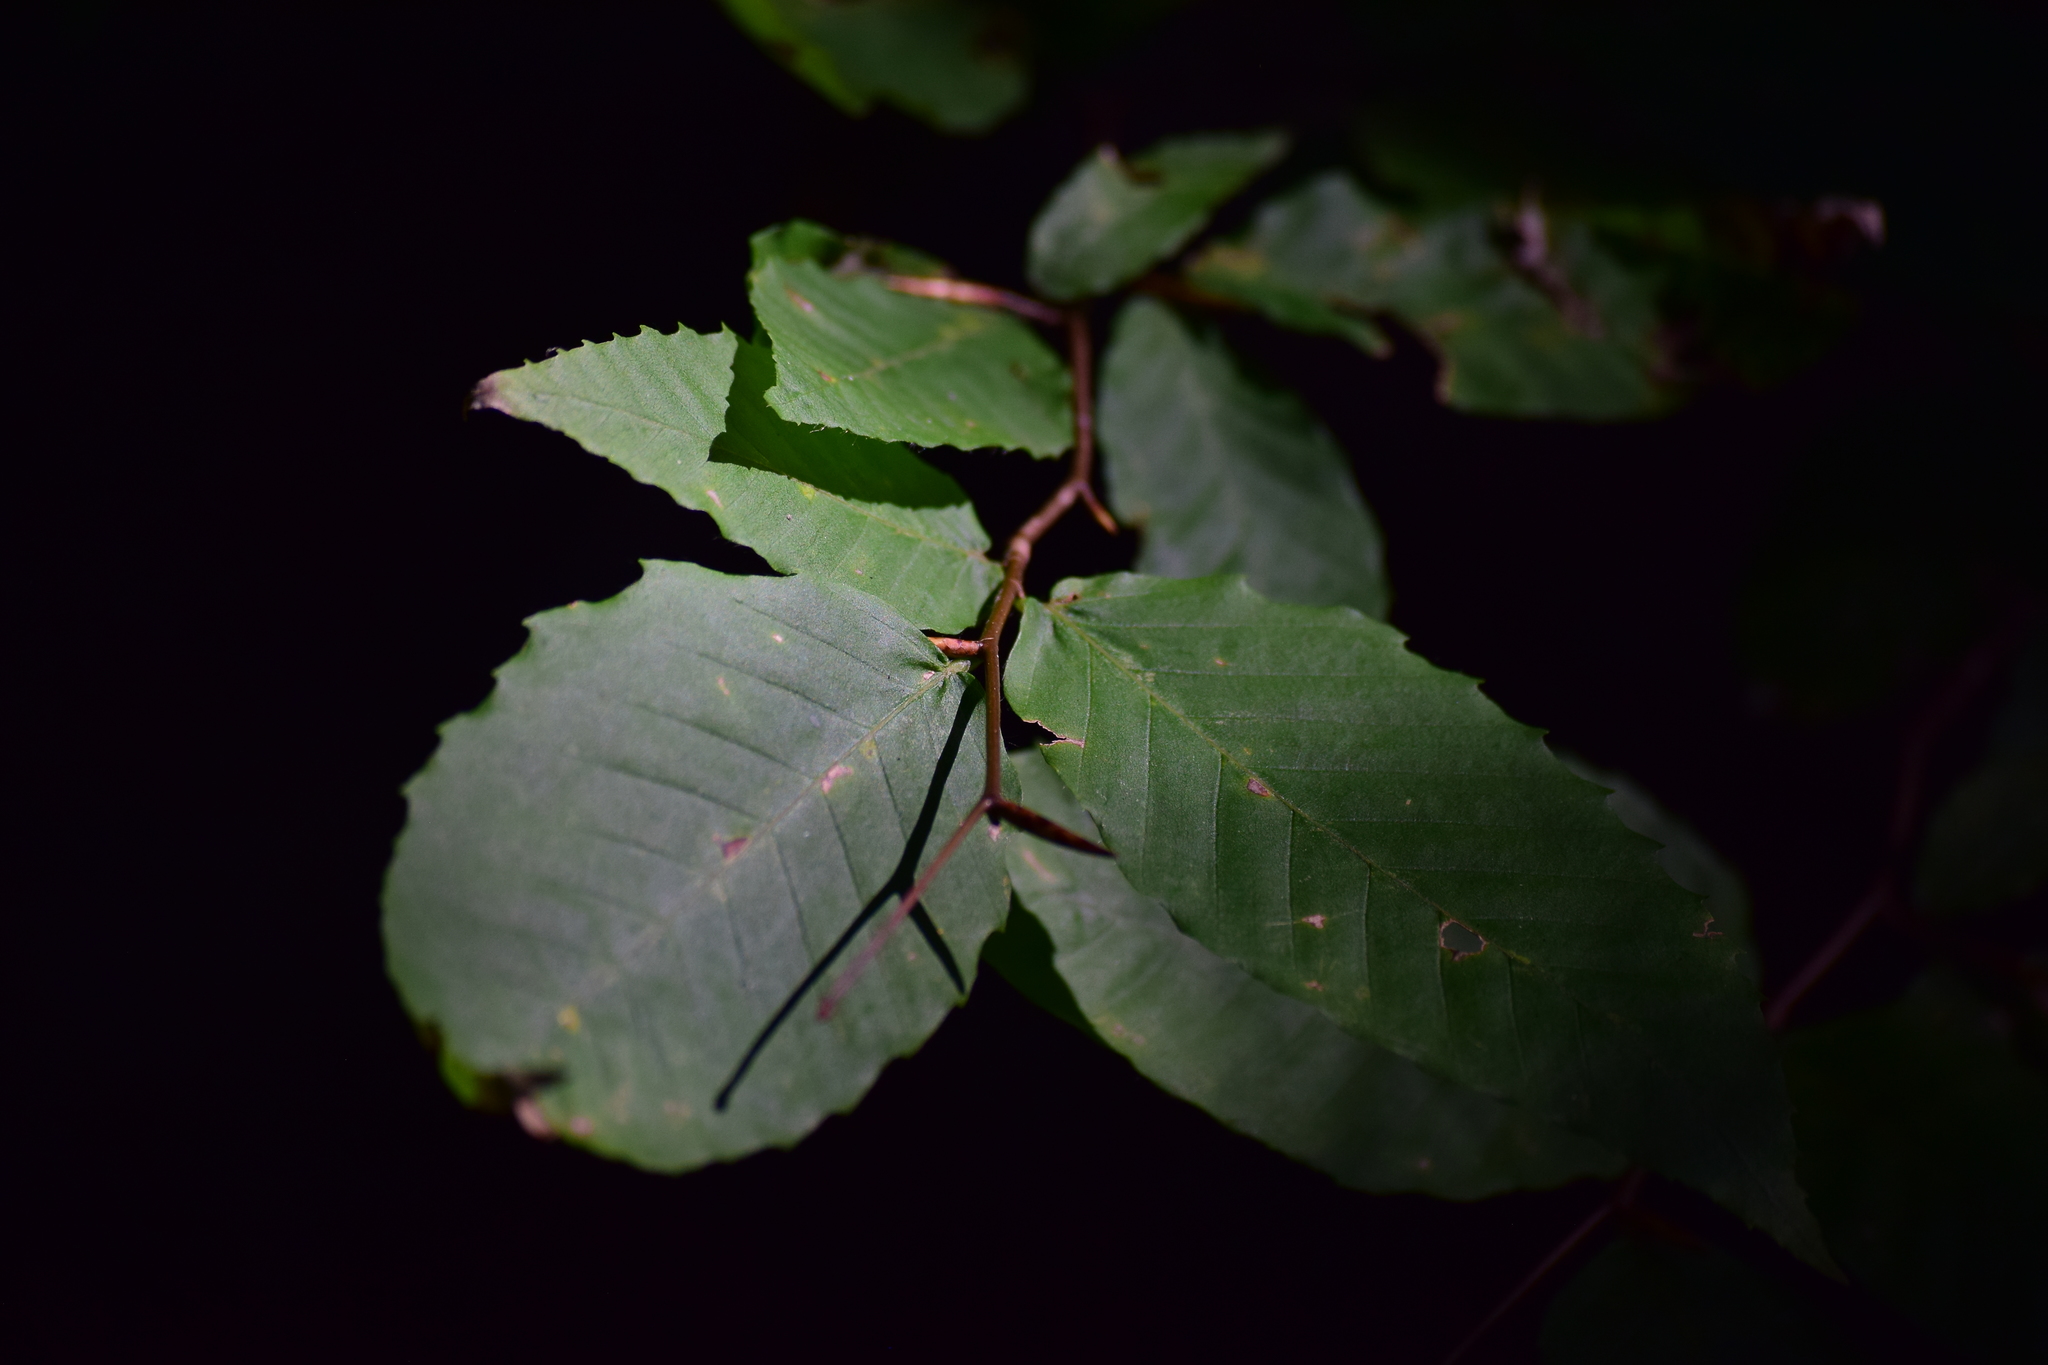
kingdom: Plantae
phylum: Tracheophyta
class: Magnoliopsida
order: Fagales
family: Fagaceae
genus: Fagus
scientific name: Fagus grandifolia
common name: American beech
